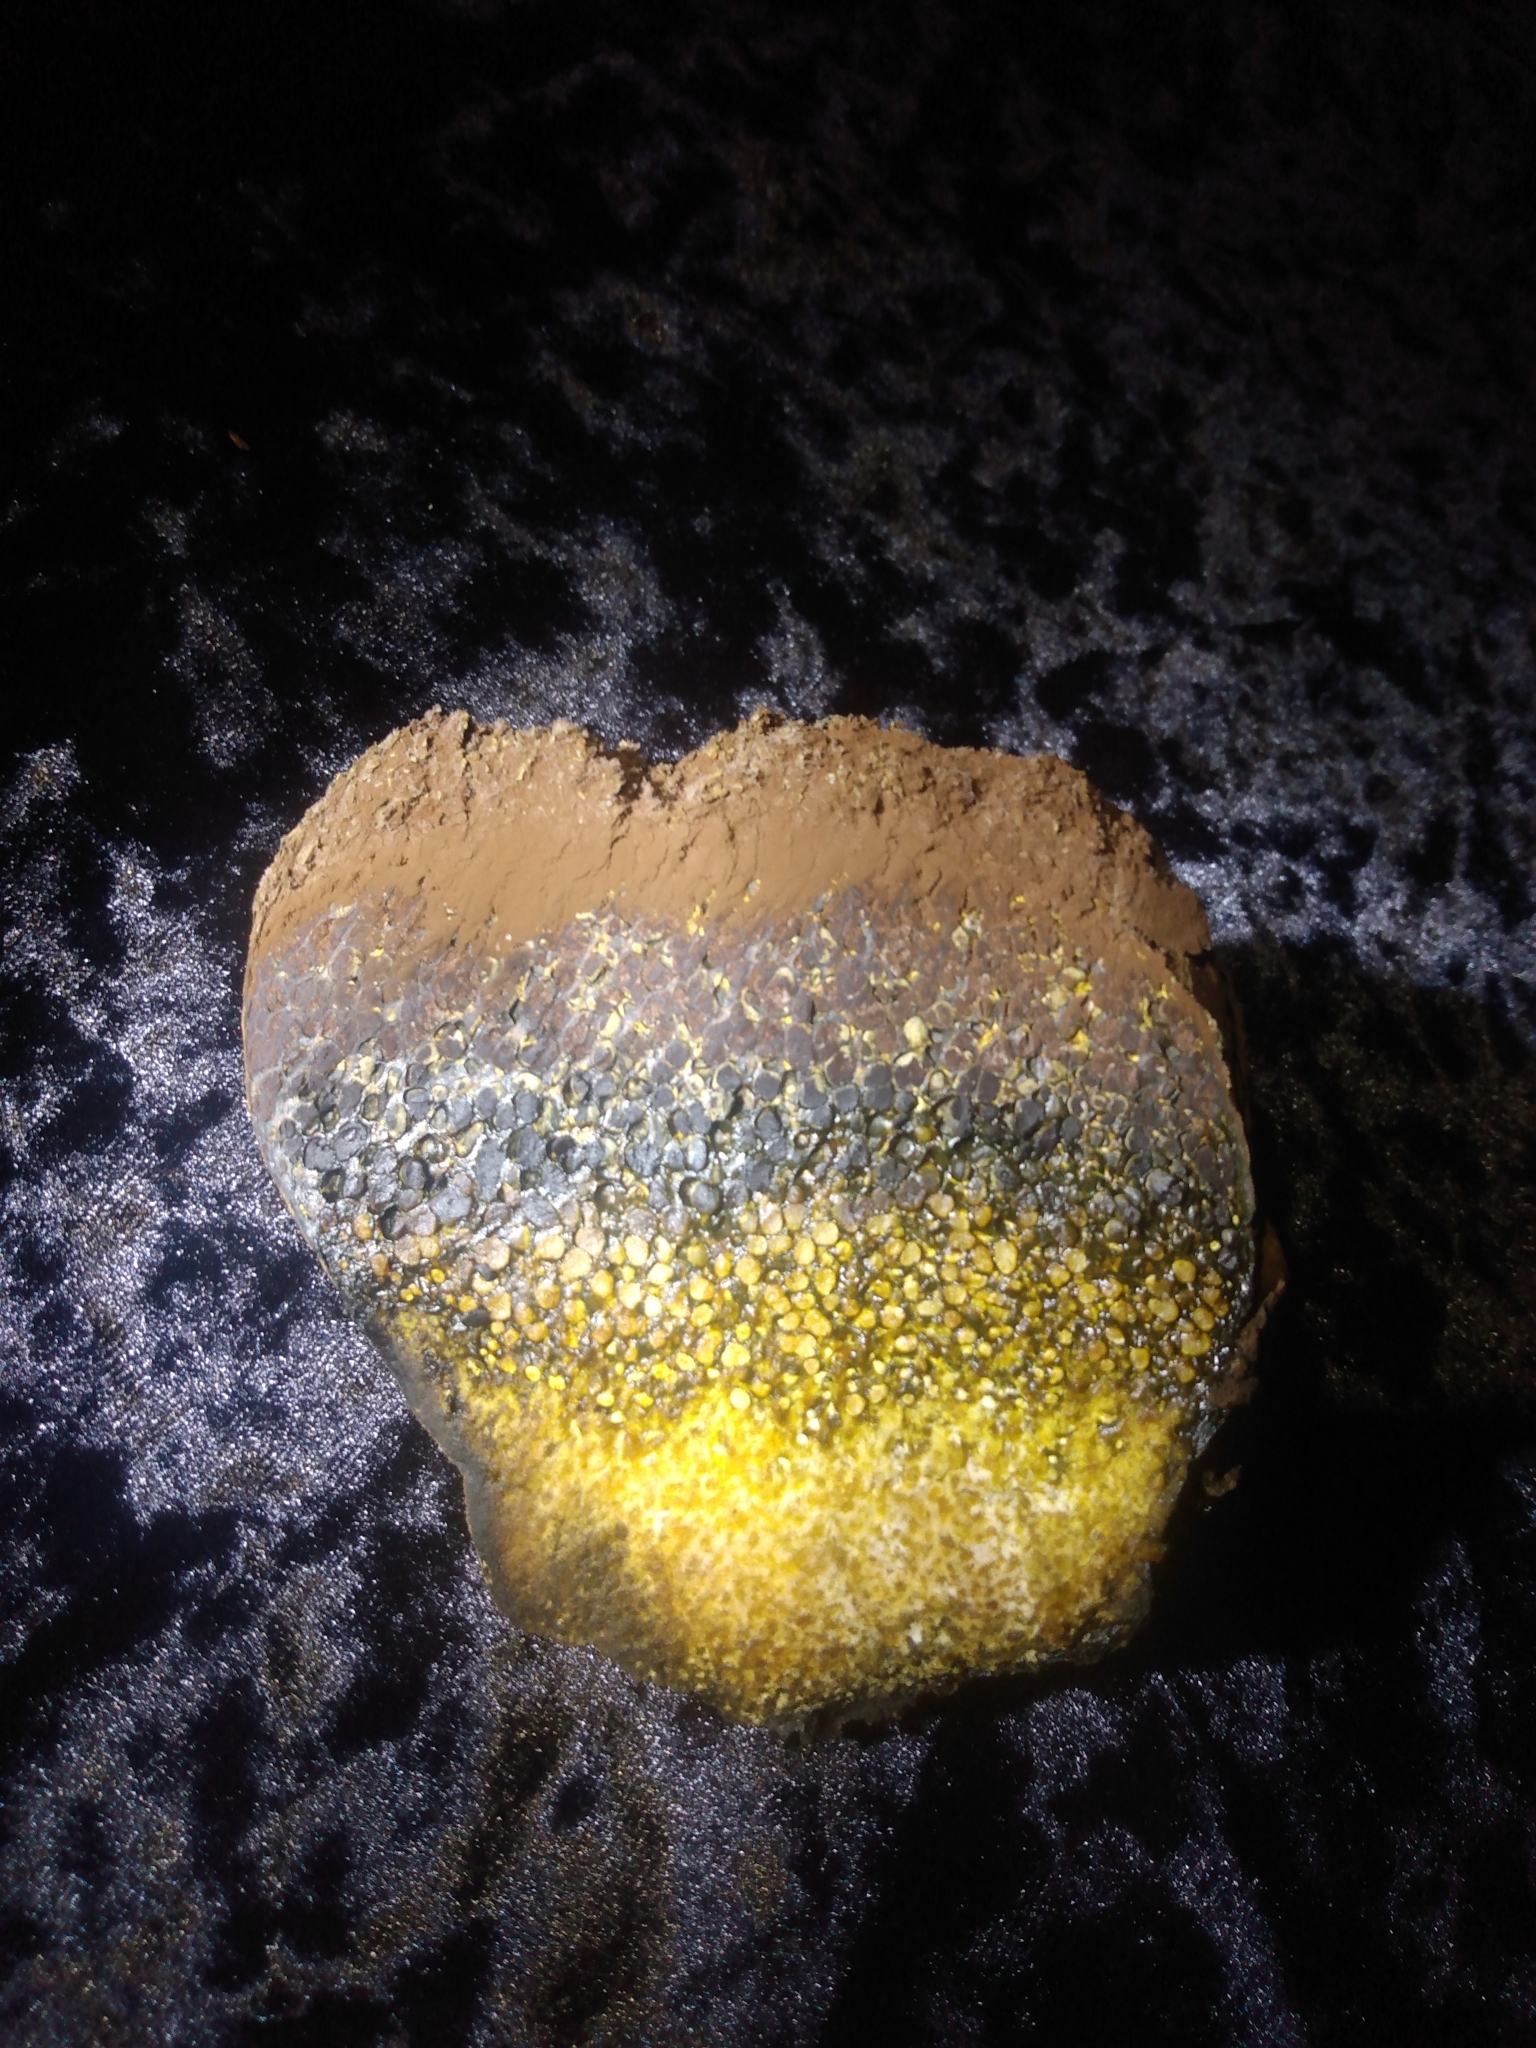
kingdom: Fungi
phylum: Basidiomycota
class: Agaricomycetes
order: Boletales
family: Sclerodermataceae
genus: Pisolithus
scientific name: Pisolithus arhizus
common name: Dyeball
